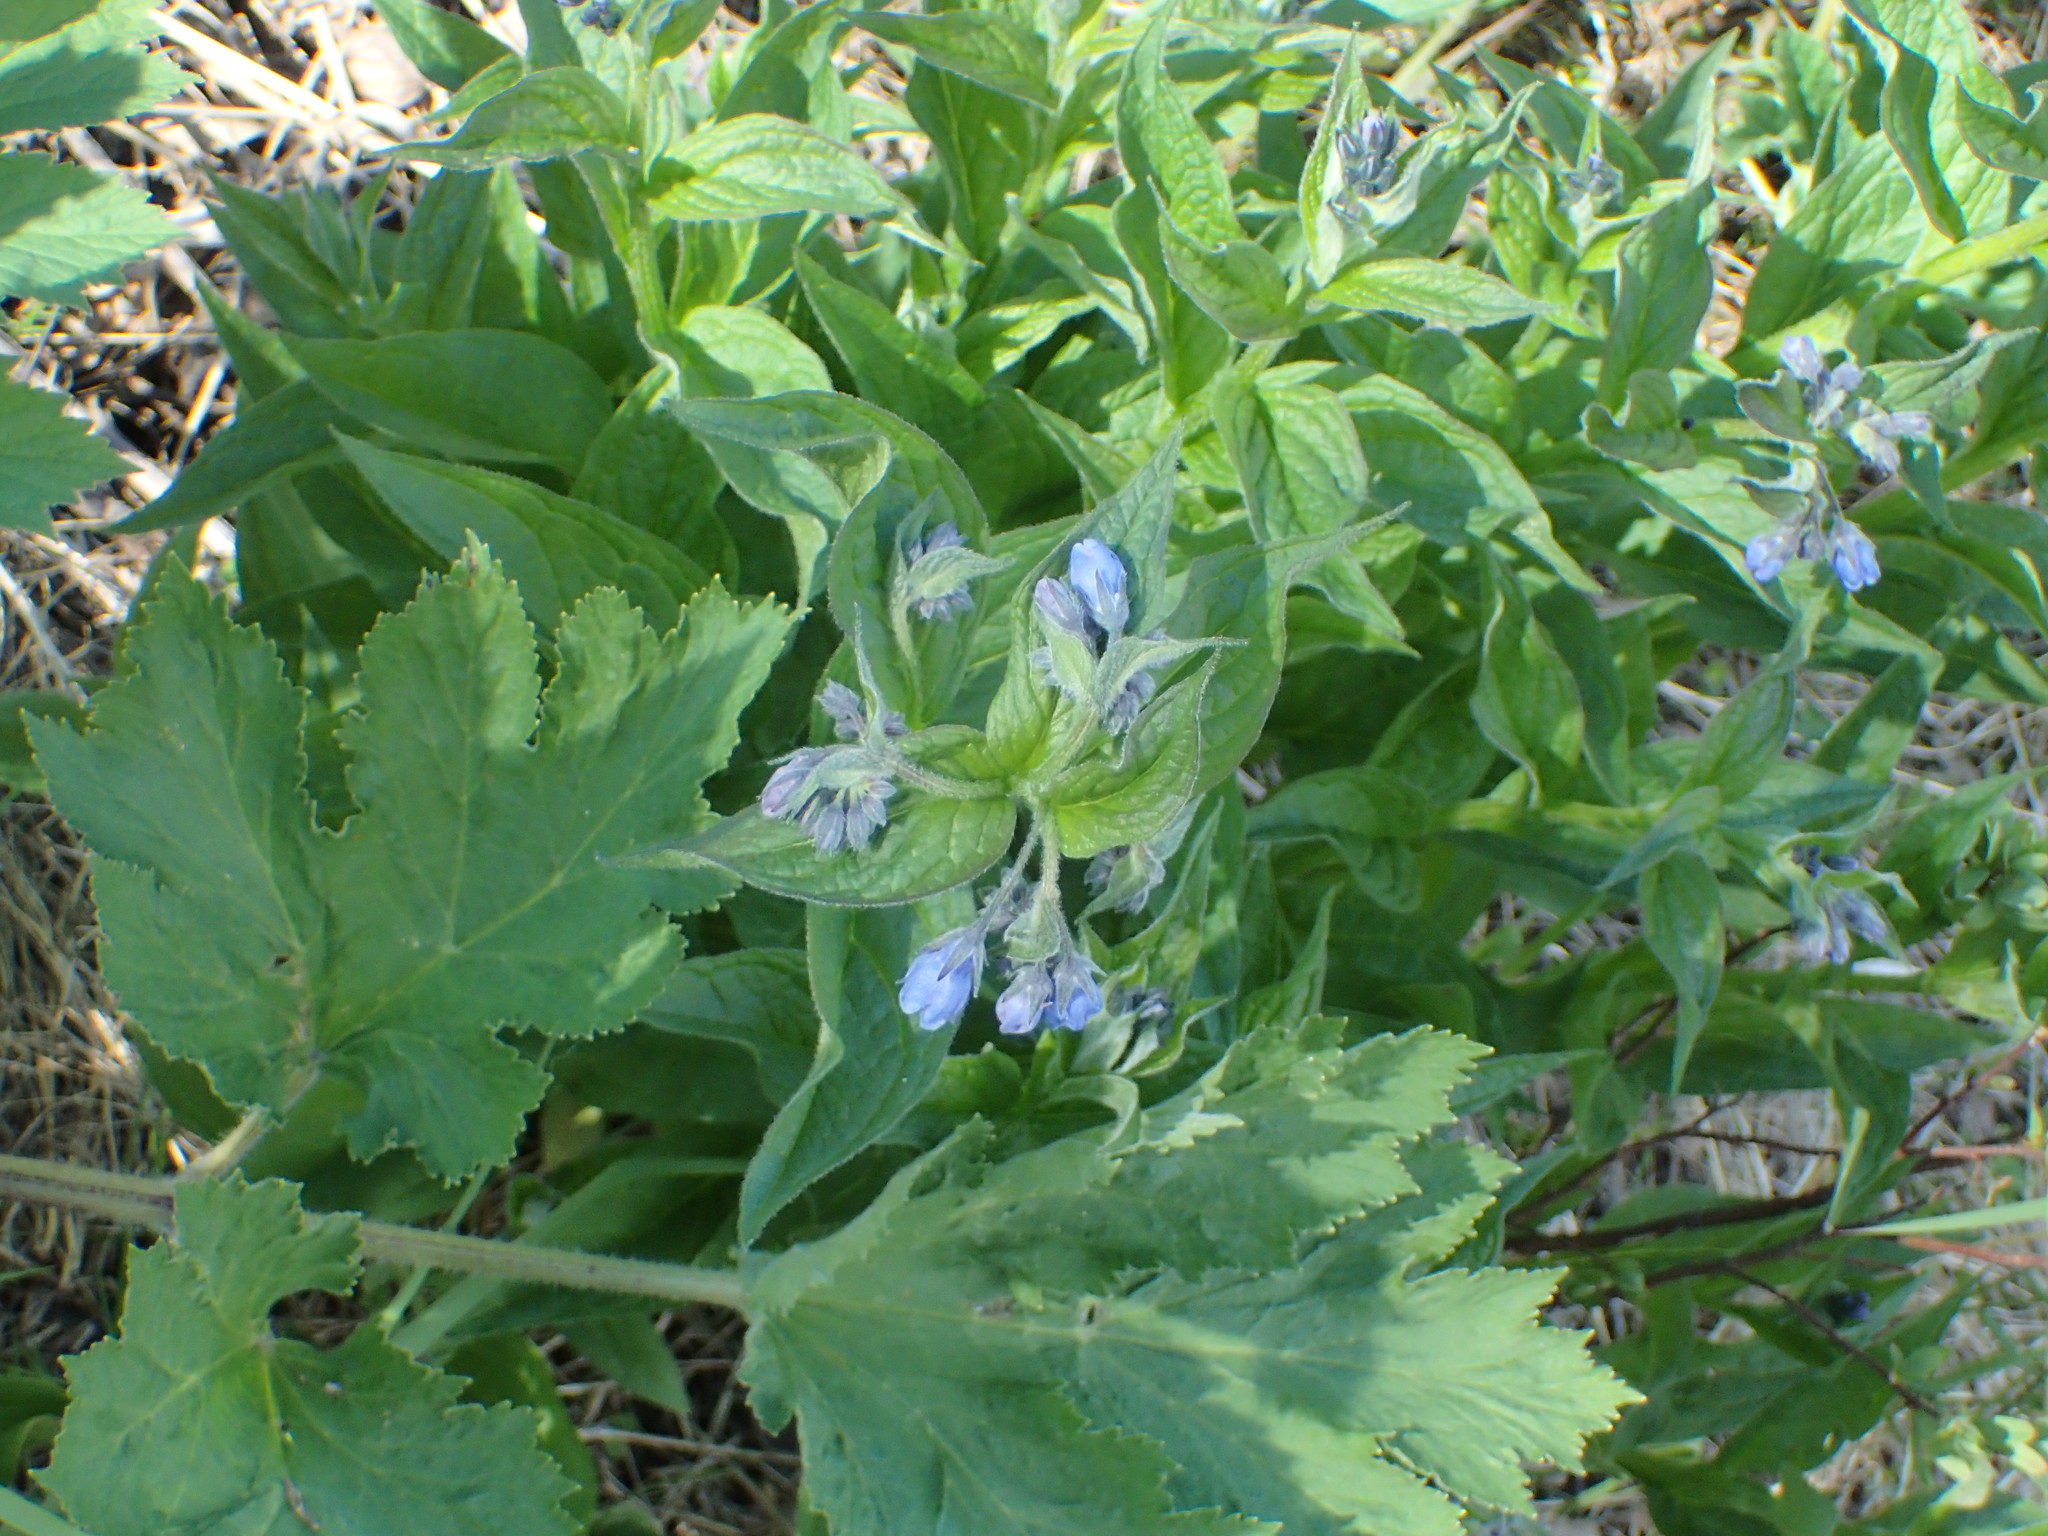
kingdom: Plantae
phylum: Tracheophyta
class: Magnoliopsida
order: Boraginales
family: Boraginaceae
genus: Mertensia
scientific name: Mertensia paniculata
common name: Panicled bluebells
